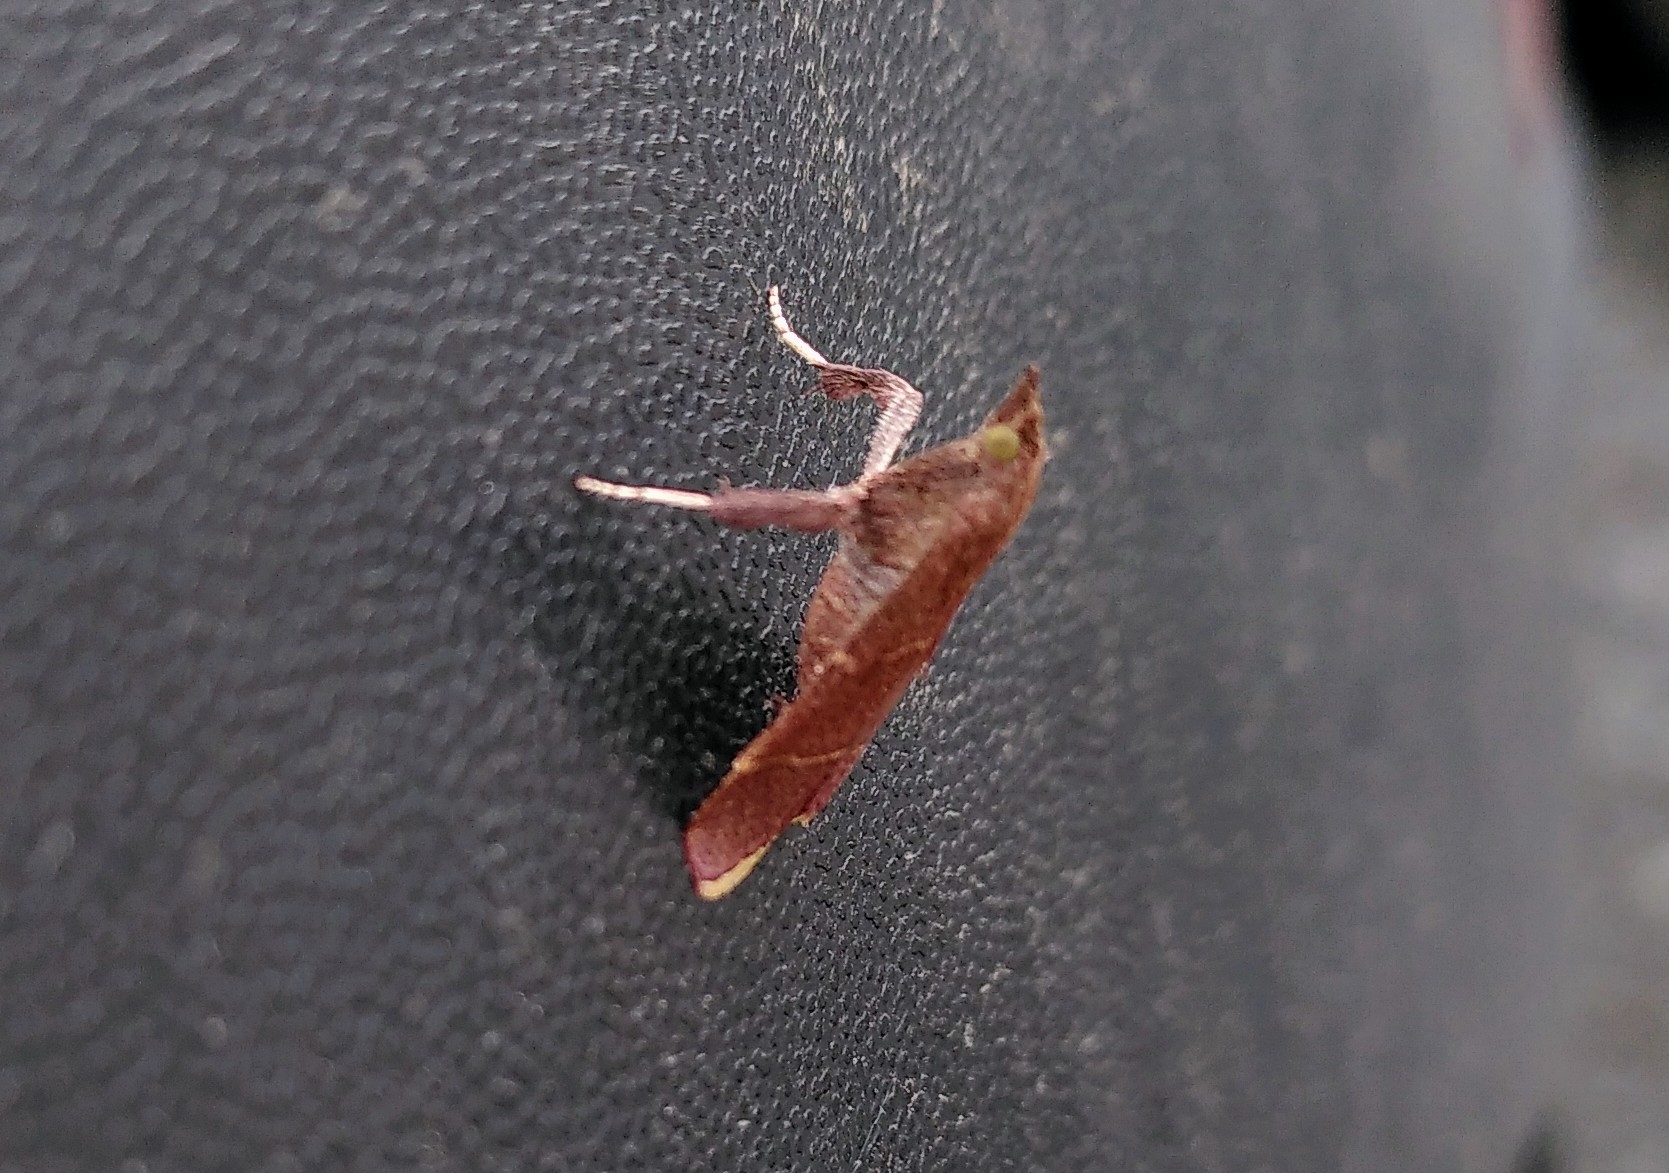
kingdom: Animalia
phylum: Arthropoda
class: Insecta
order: Lepidoptera
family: Pyralidae
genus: Parachma
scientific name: Parachma lequettealis
